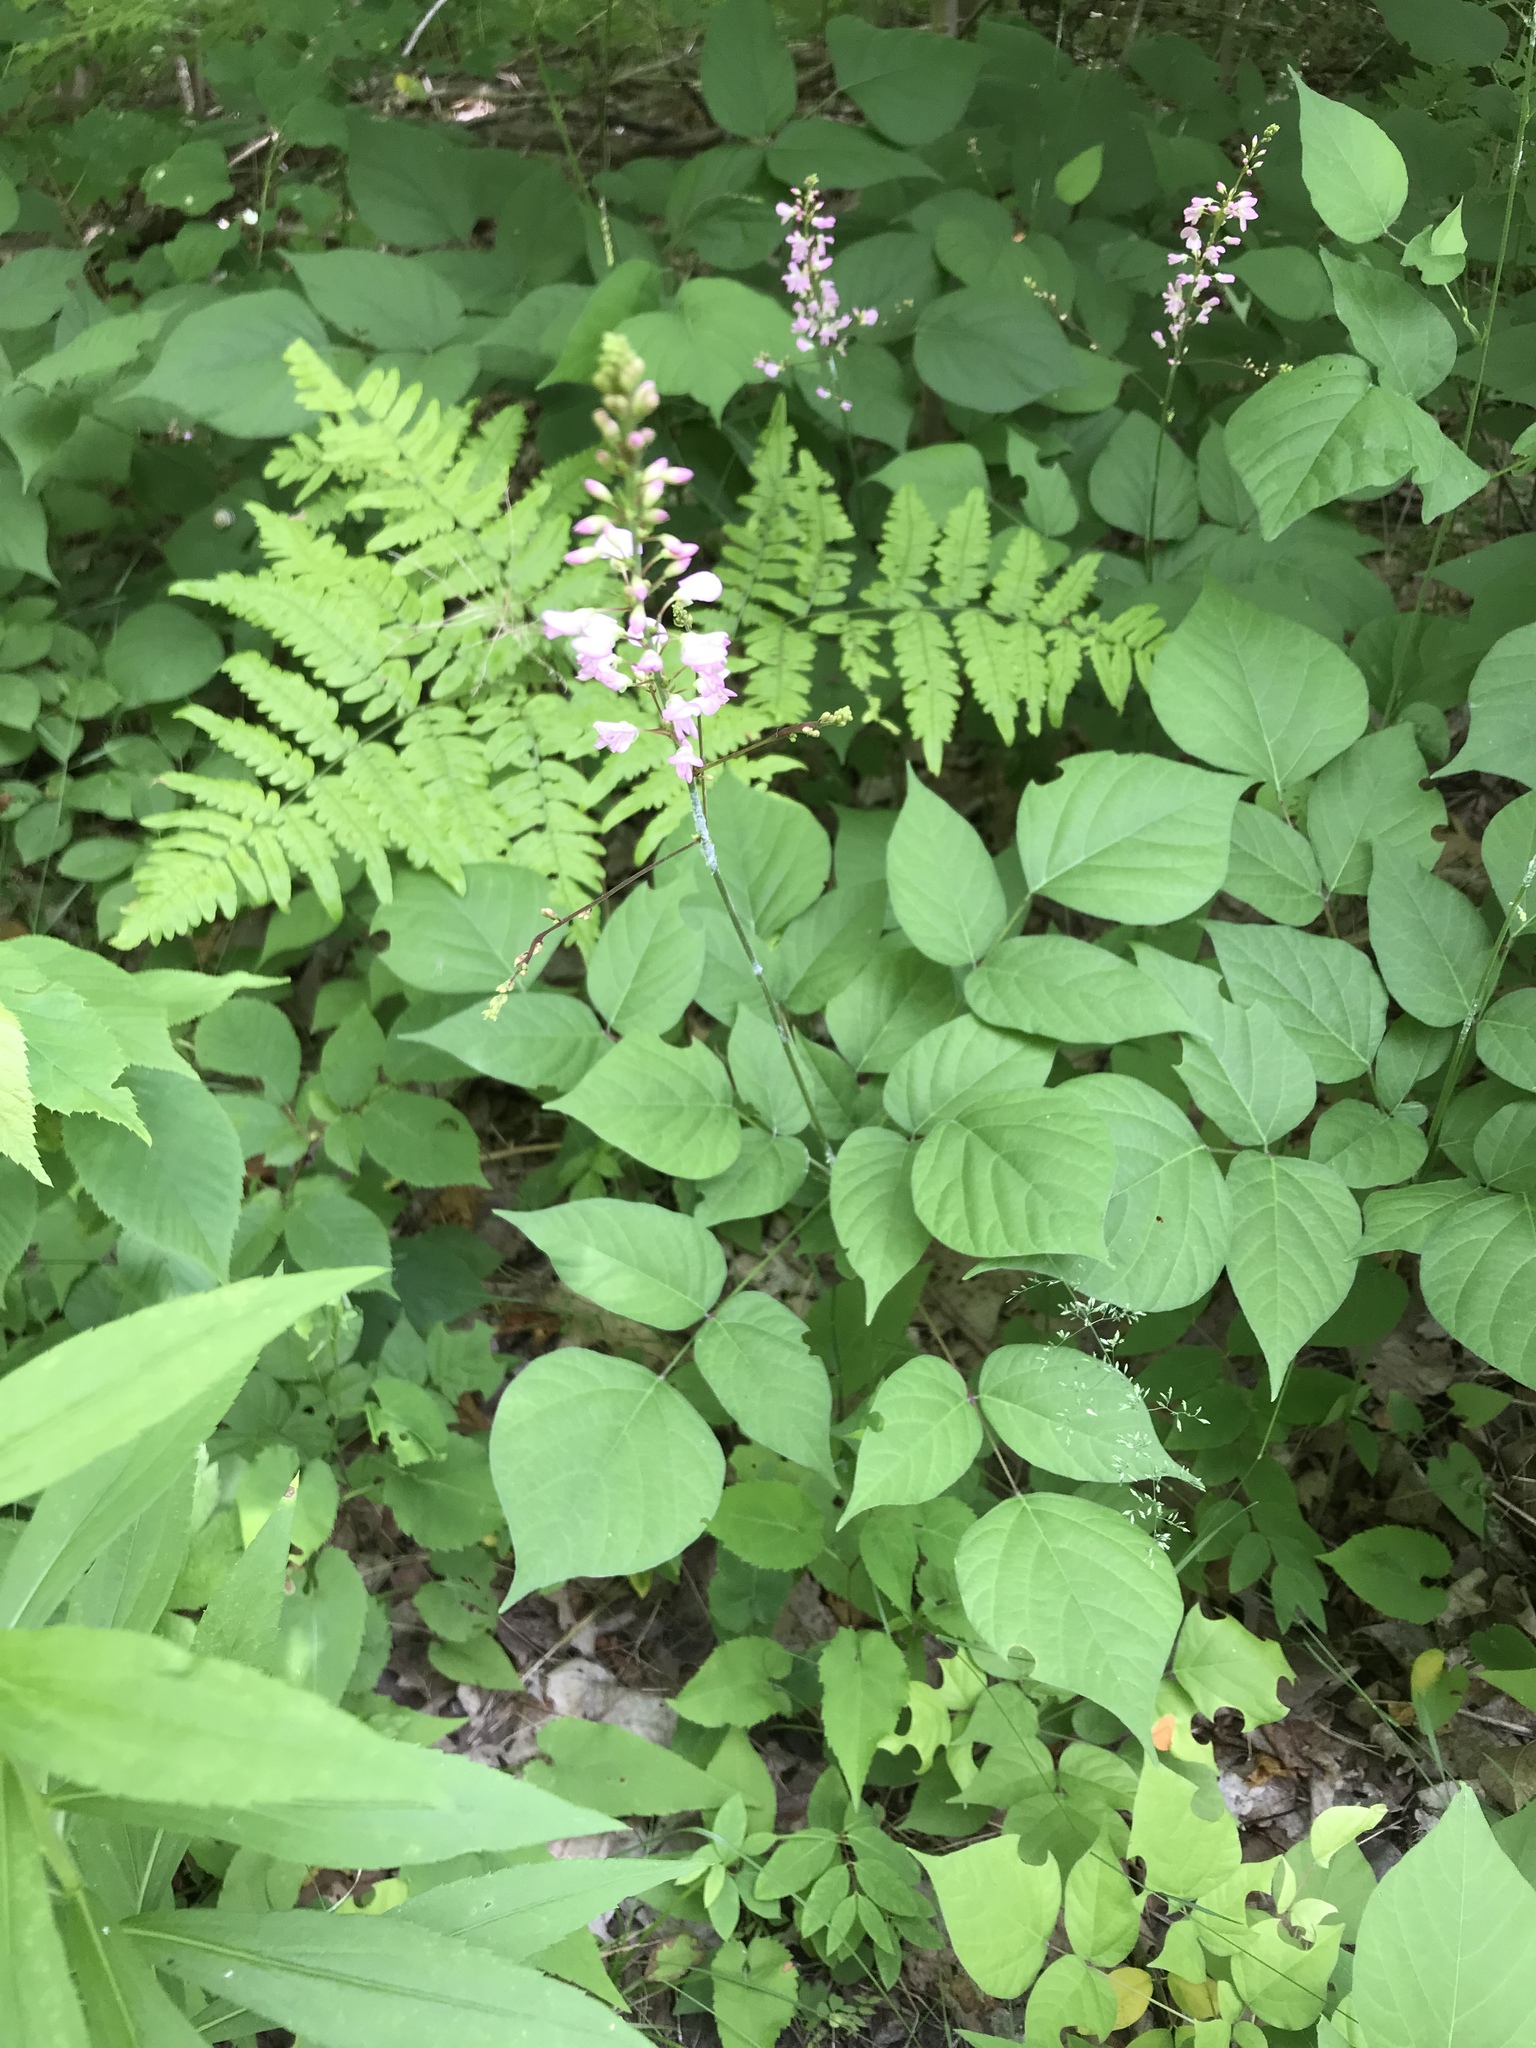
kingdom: Plantae
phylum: Tracheophyta
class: Magnoliopsida
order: Fabales
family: Fabaceae
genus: Hylodesmum
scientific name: Hylodesmum glutinosum
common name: Clustered-leaved tick-trefoil
